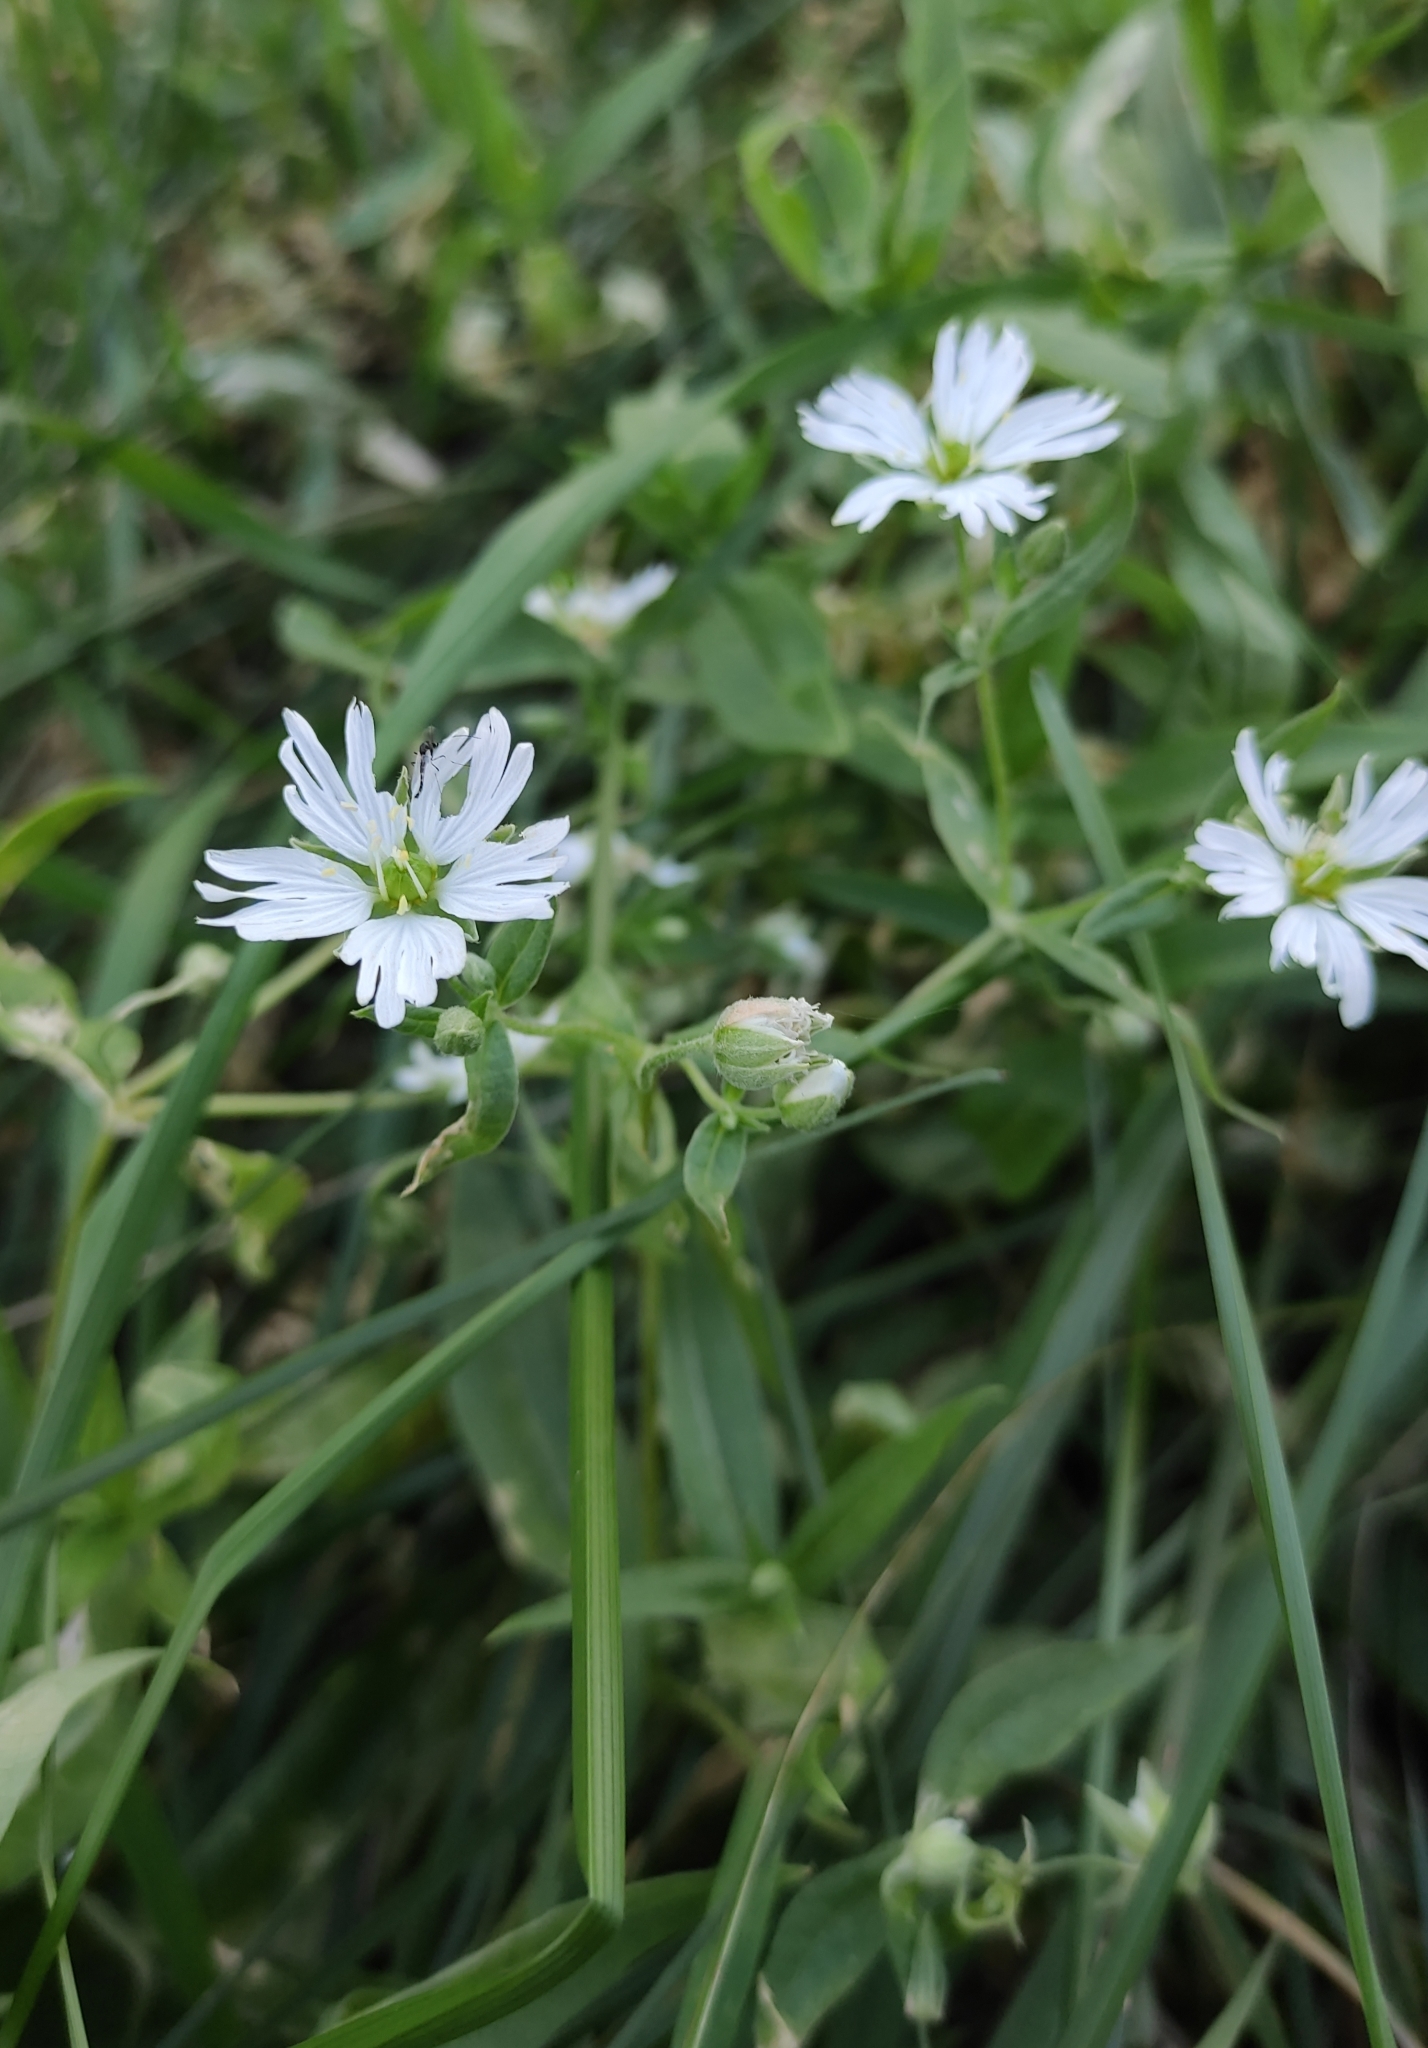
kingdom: Plantae
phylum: Tracheophyta
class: Magnoliopsida
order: Caryophyllales
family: Caryophyllaceae
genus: Stellaria
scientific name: Stellaria radians
